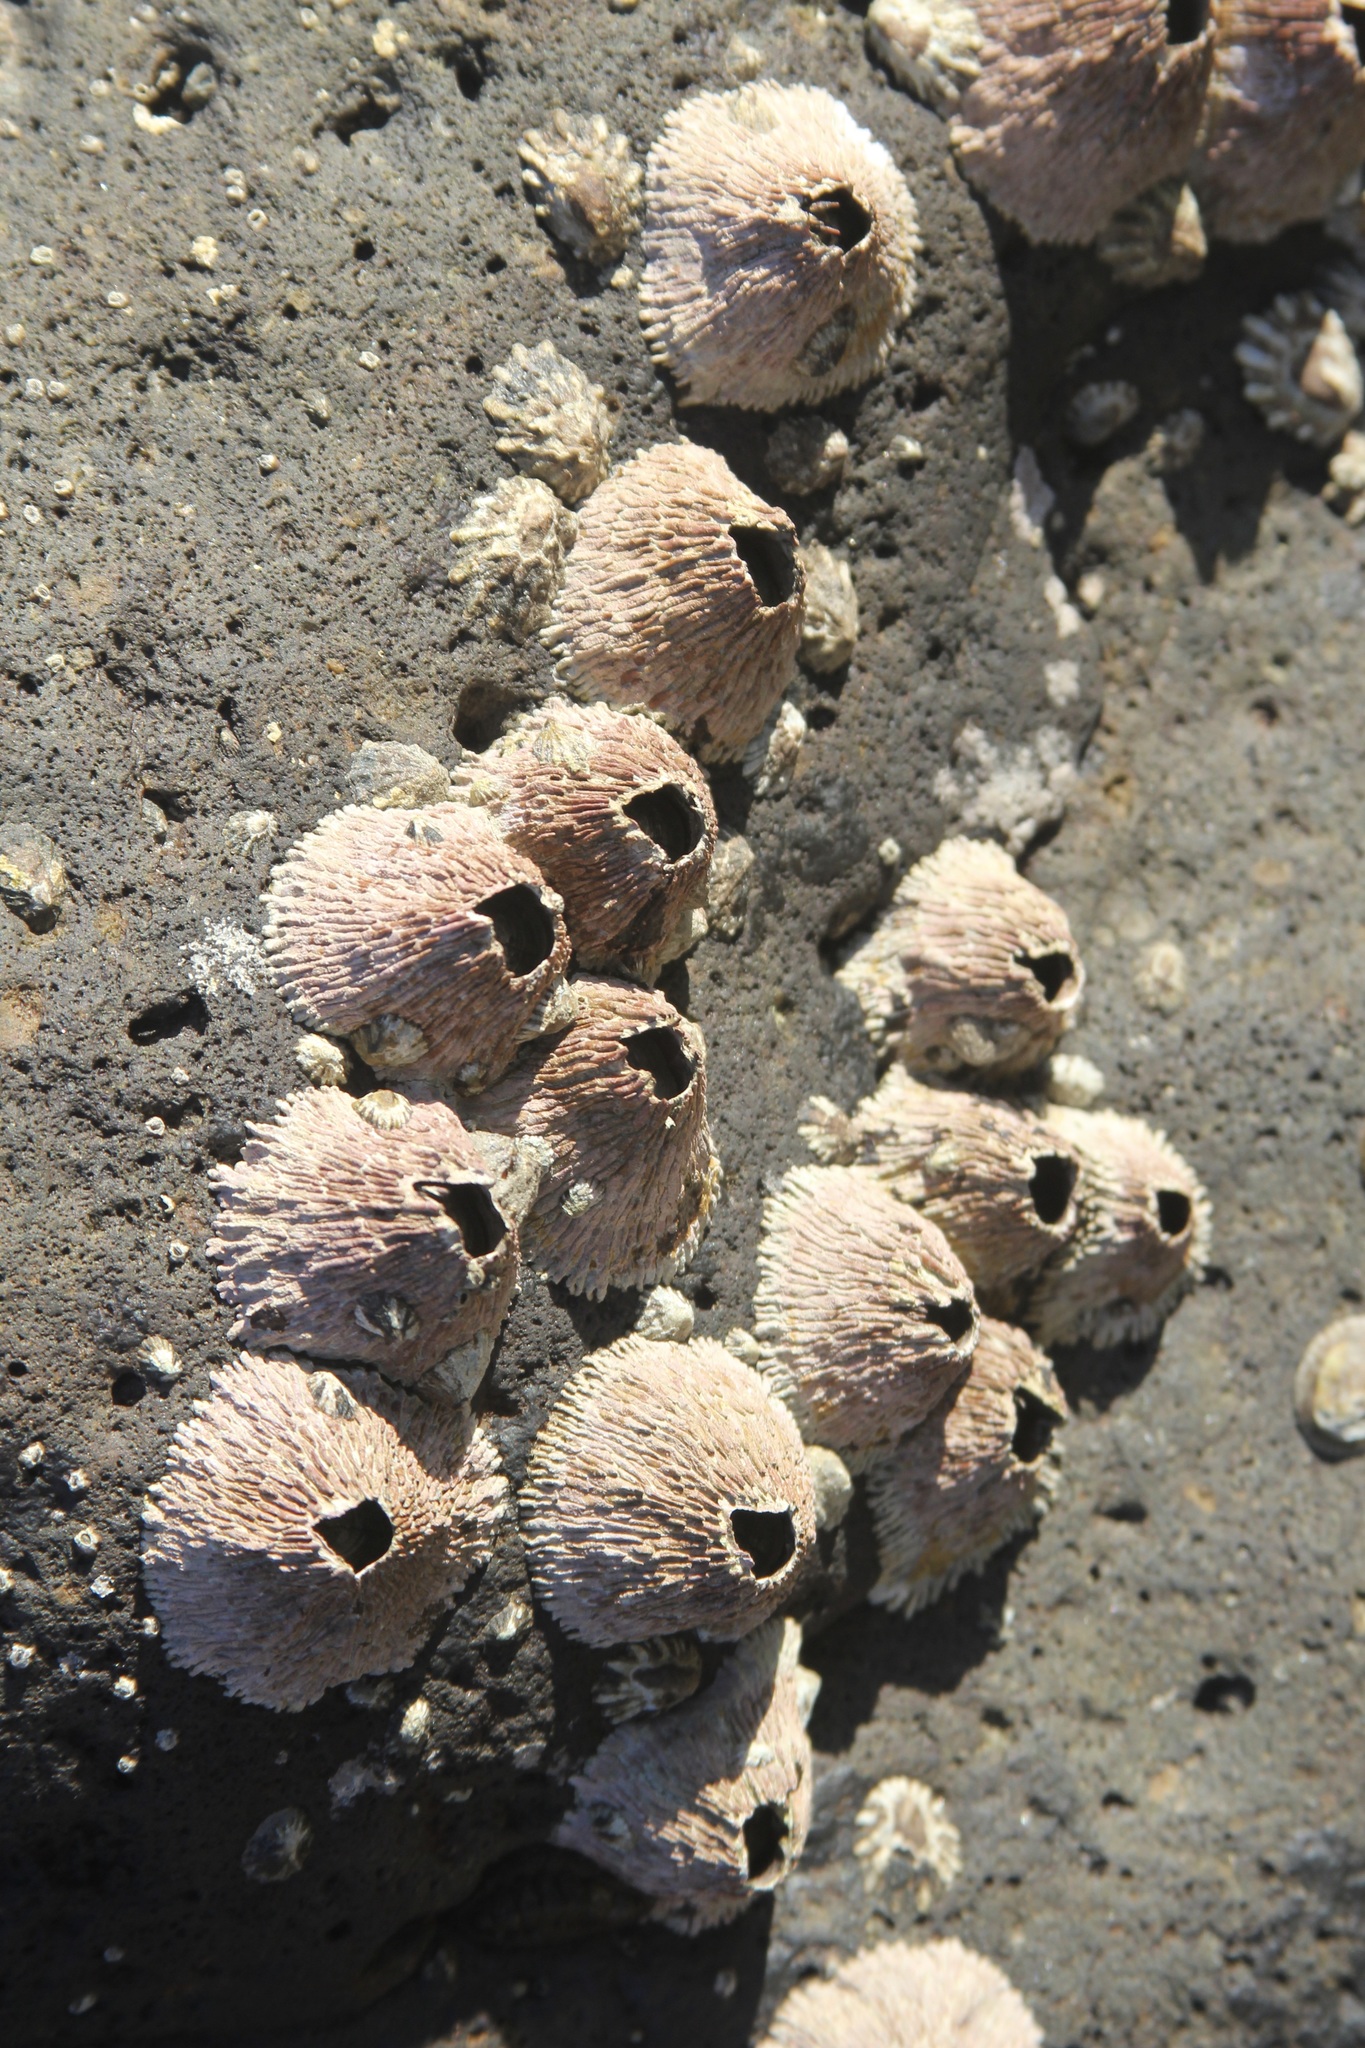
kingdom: Animalia
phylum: Arthropoda
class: Maxillopoda
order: Sessilia
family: Tetraclitidae
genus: Tetraclita
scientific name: Tetraclita rubescens
